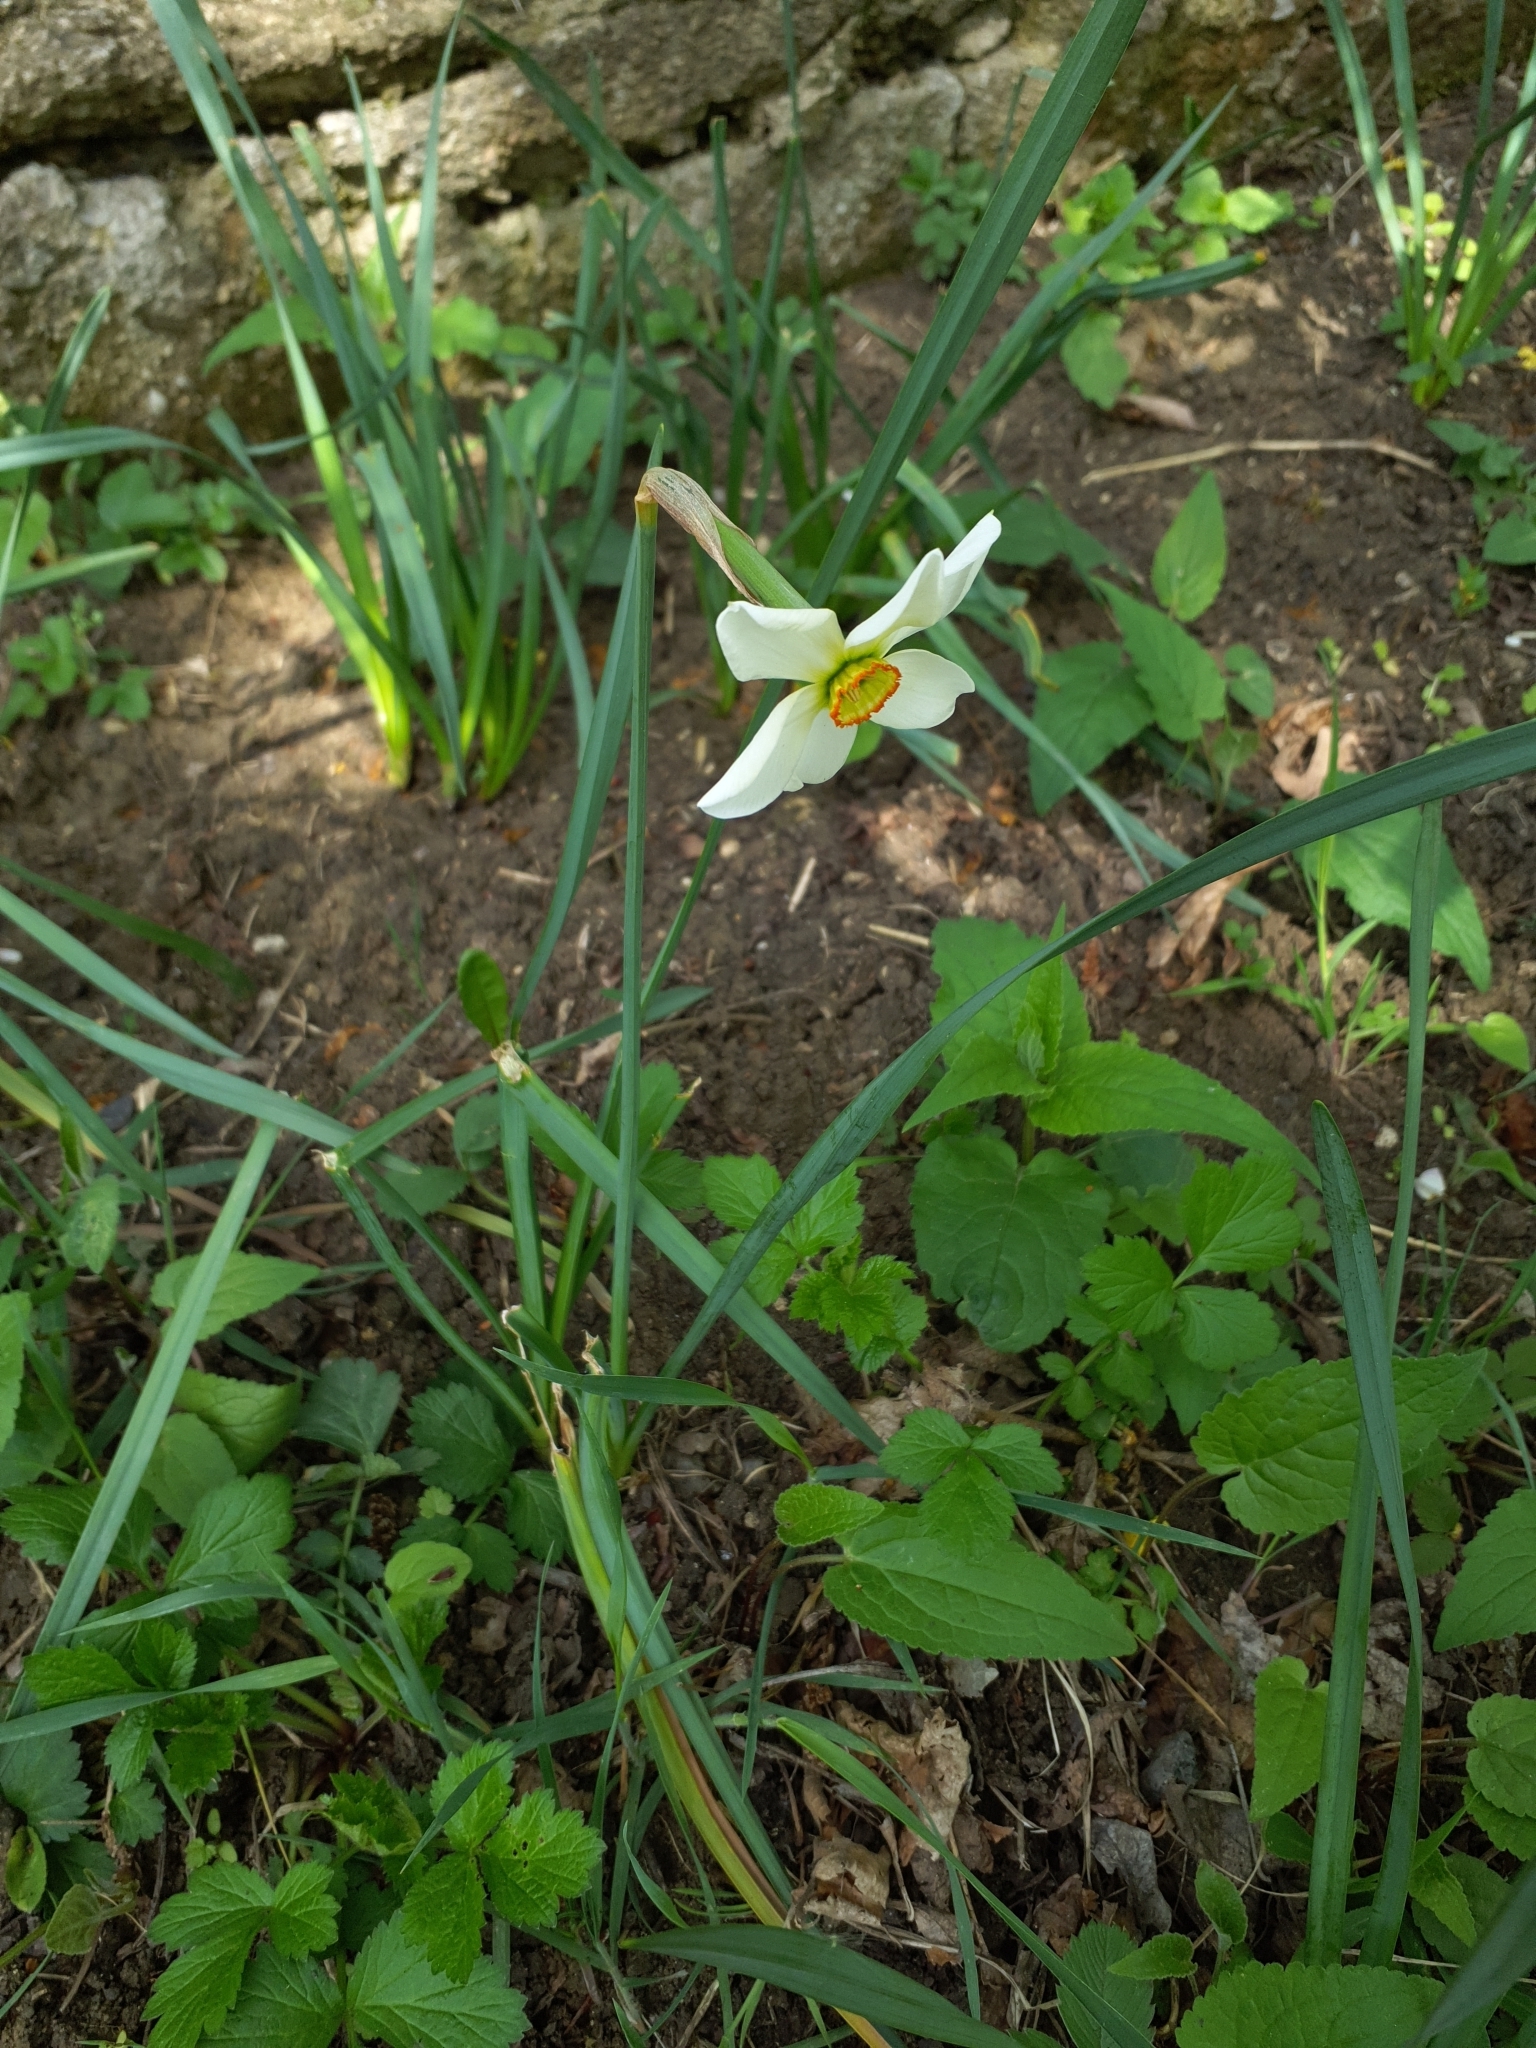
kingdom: Plantae
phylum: Tracheophyta
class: Liliopsida
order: Asparagales
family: Amaryllidaceae
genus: Narcissus
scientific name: Narcissus poeticus
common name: Pheasant's-eye daffodil
